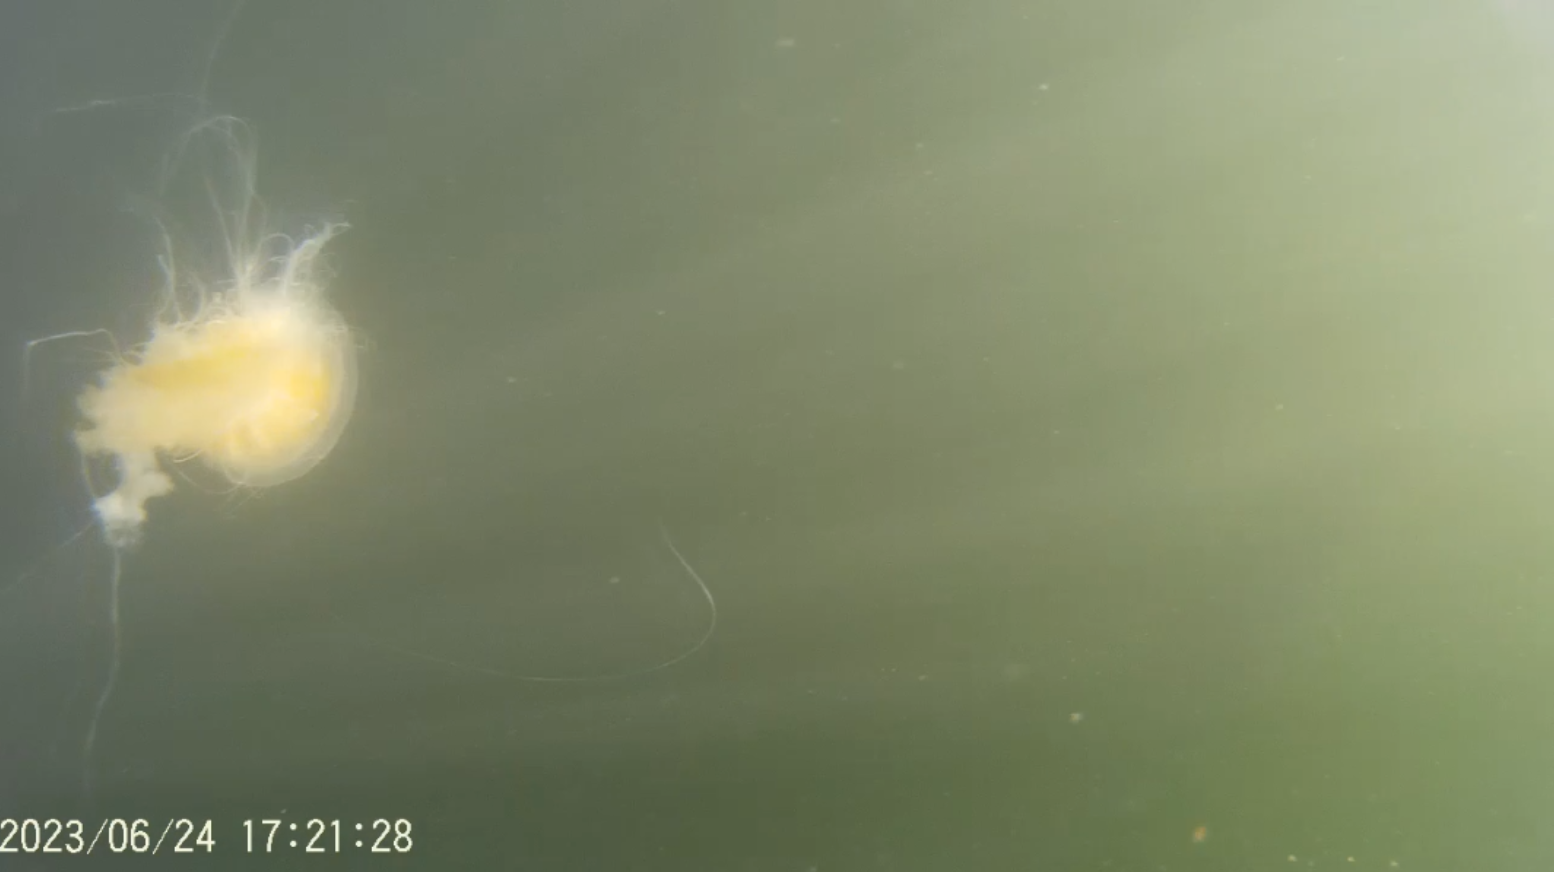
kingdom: Animalia
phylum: Cnidaria
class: Scyphozoa
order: Semaeostomeae
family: Phacellophoridae
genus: Phacellophora
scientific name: Phacellophora camtschatica
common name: Fried-egg jellyfish
